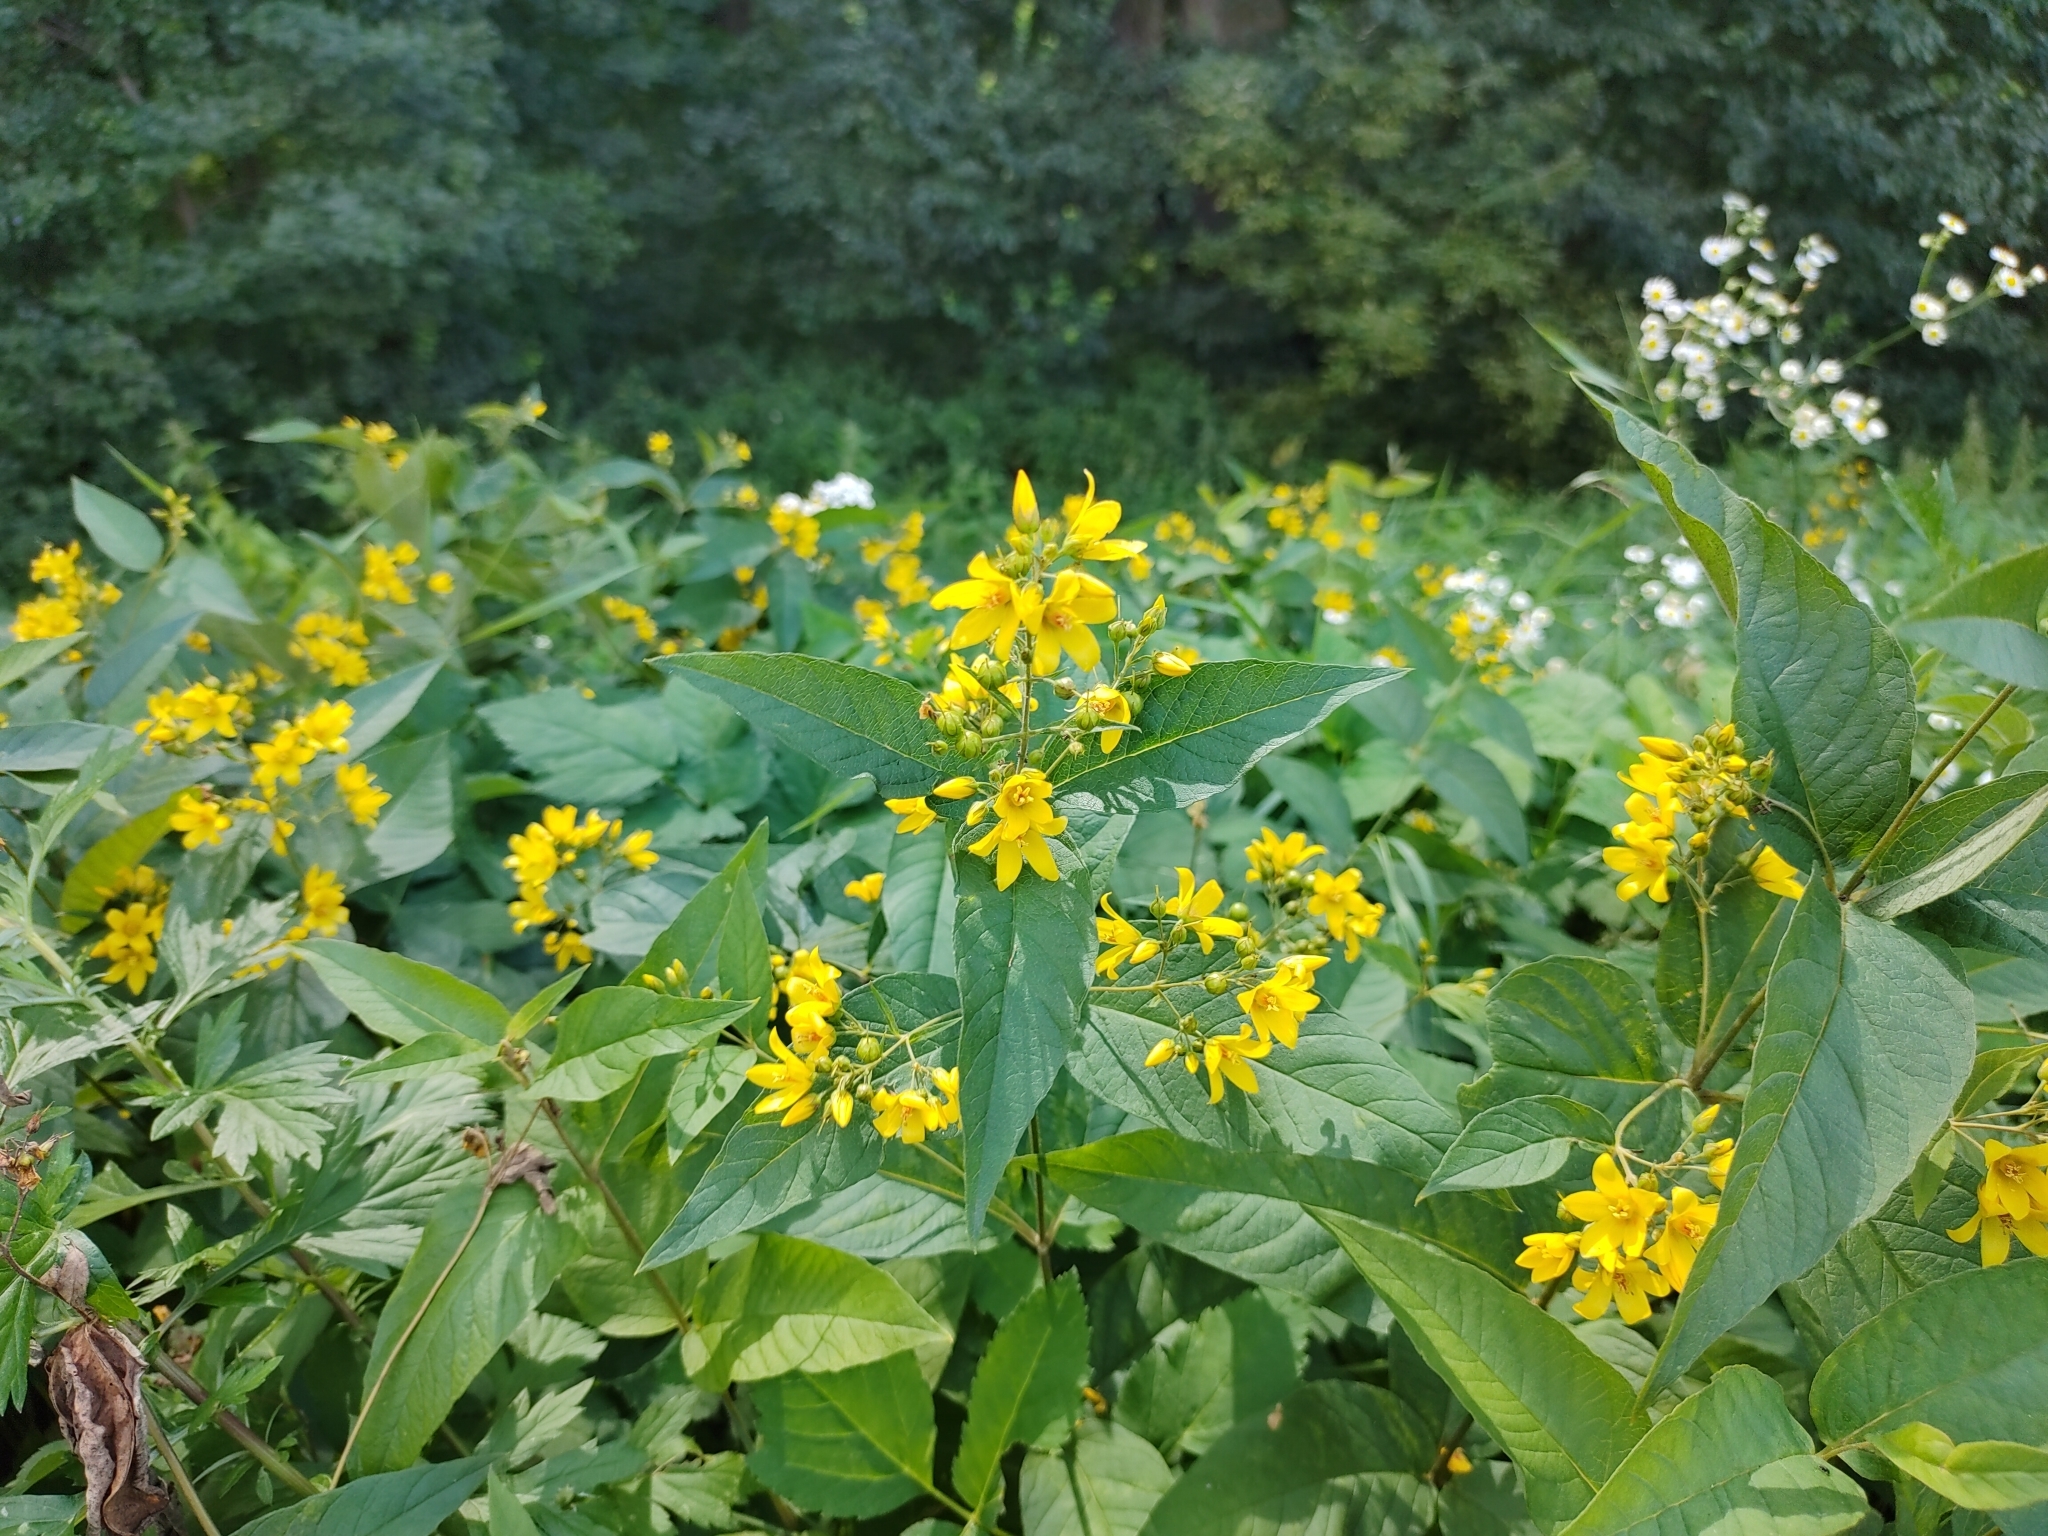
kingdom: Plantae
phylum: Tracheophyta
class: Magnoliopsida
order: Ericales
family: Primulaceae
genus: Lysimachia
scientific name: Lysimachia vulgaris
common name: Yellow loosestrife
